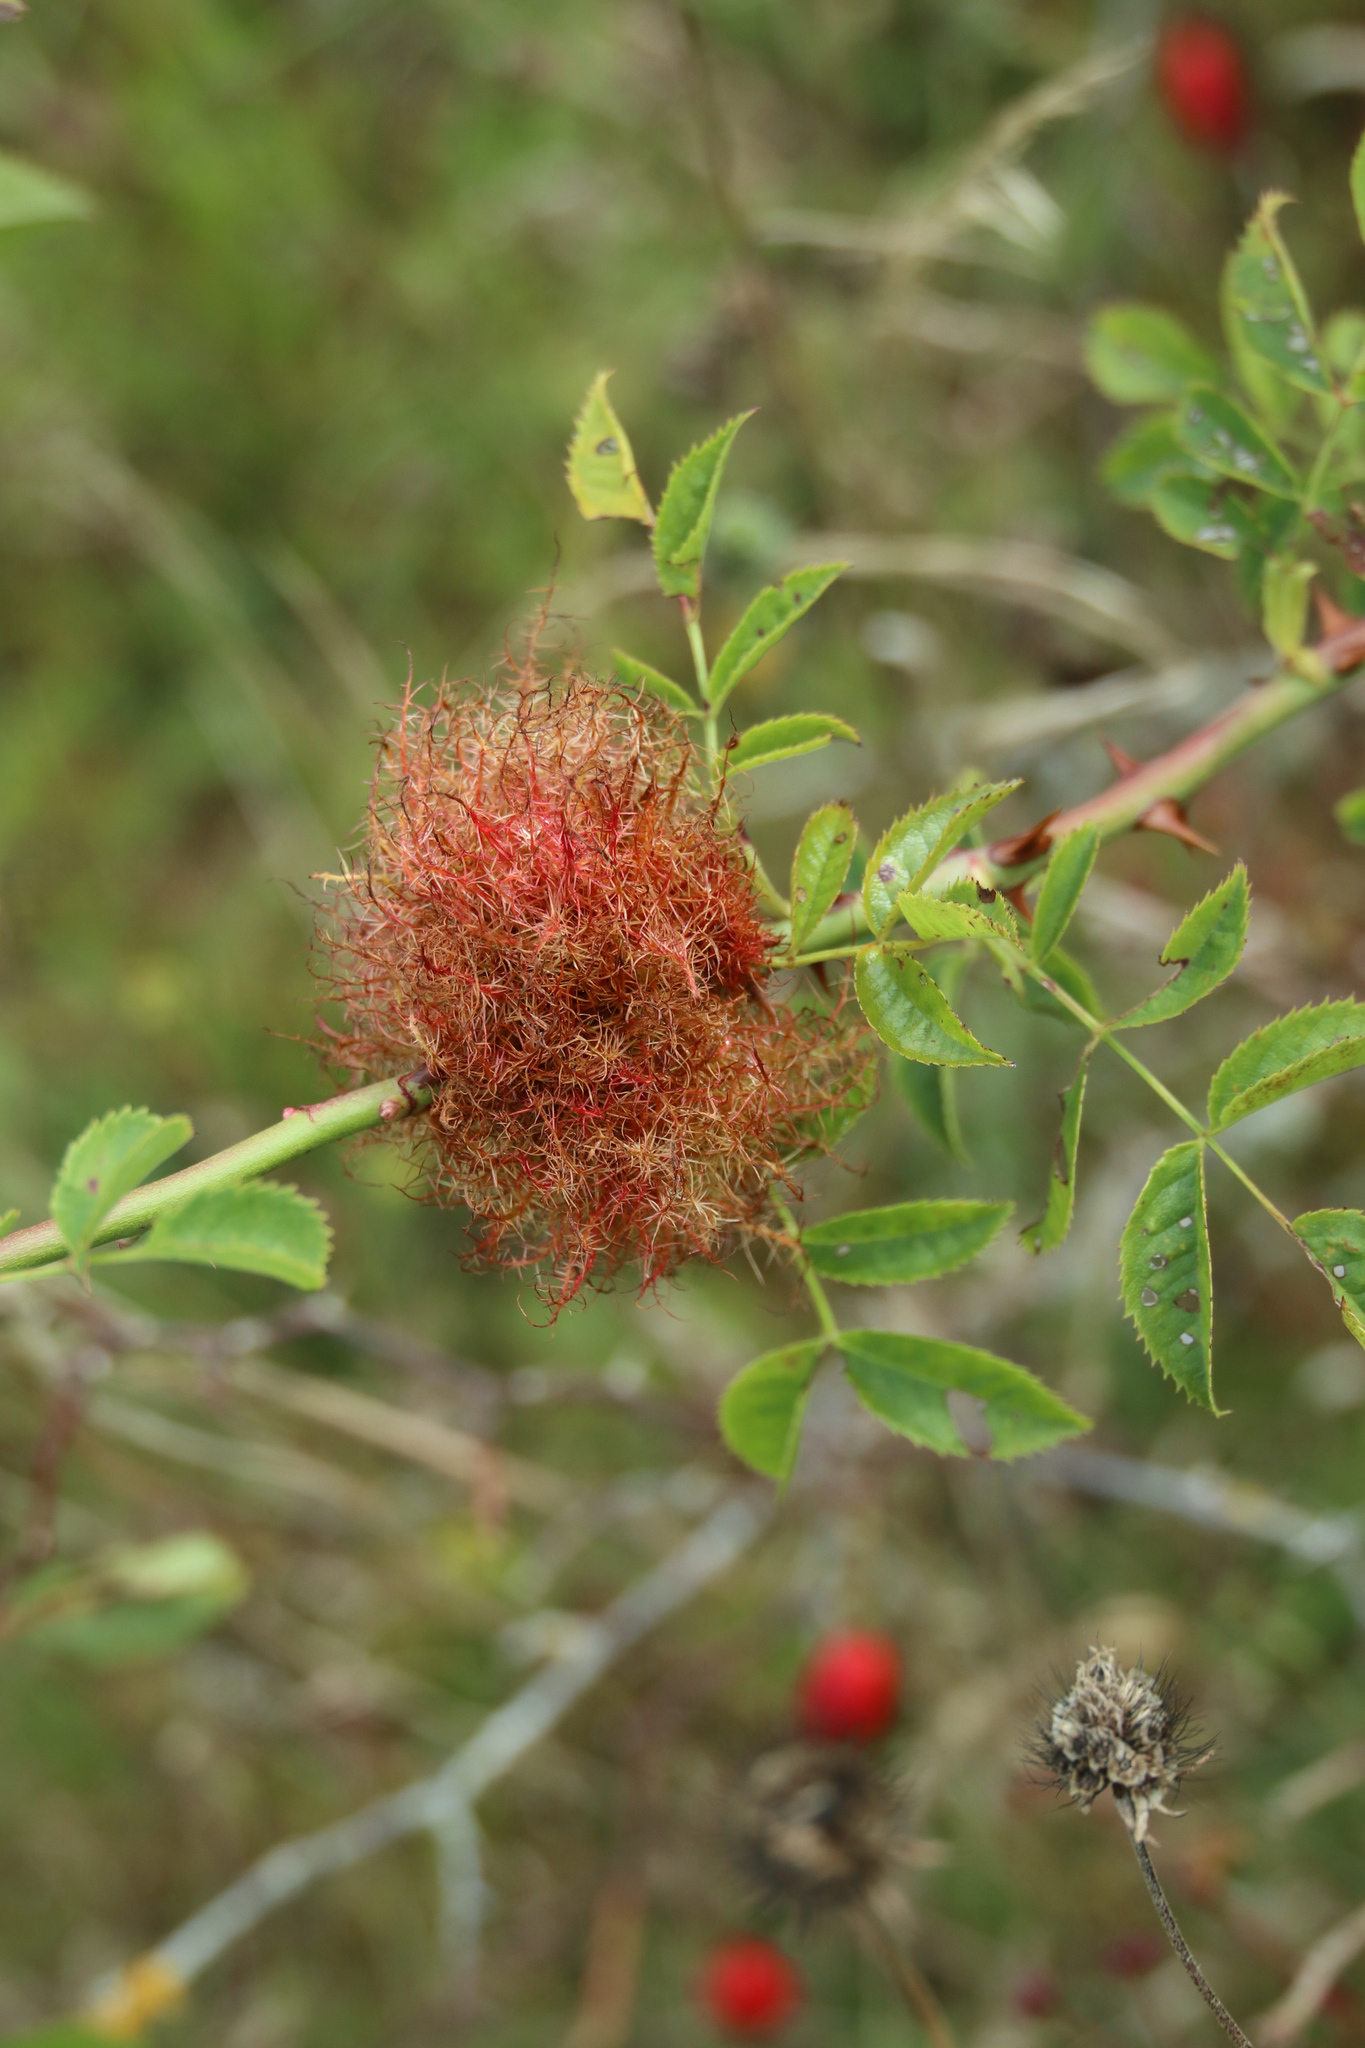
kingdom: Animalia
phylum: Arthropoda
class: Insecta
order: Hymenoptera
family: Cynipidae
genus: Diplolepis
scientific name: Diplolepis rosae
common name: Bedeguar gall
